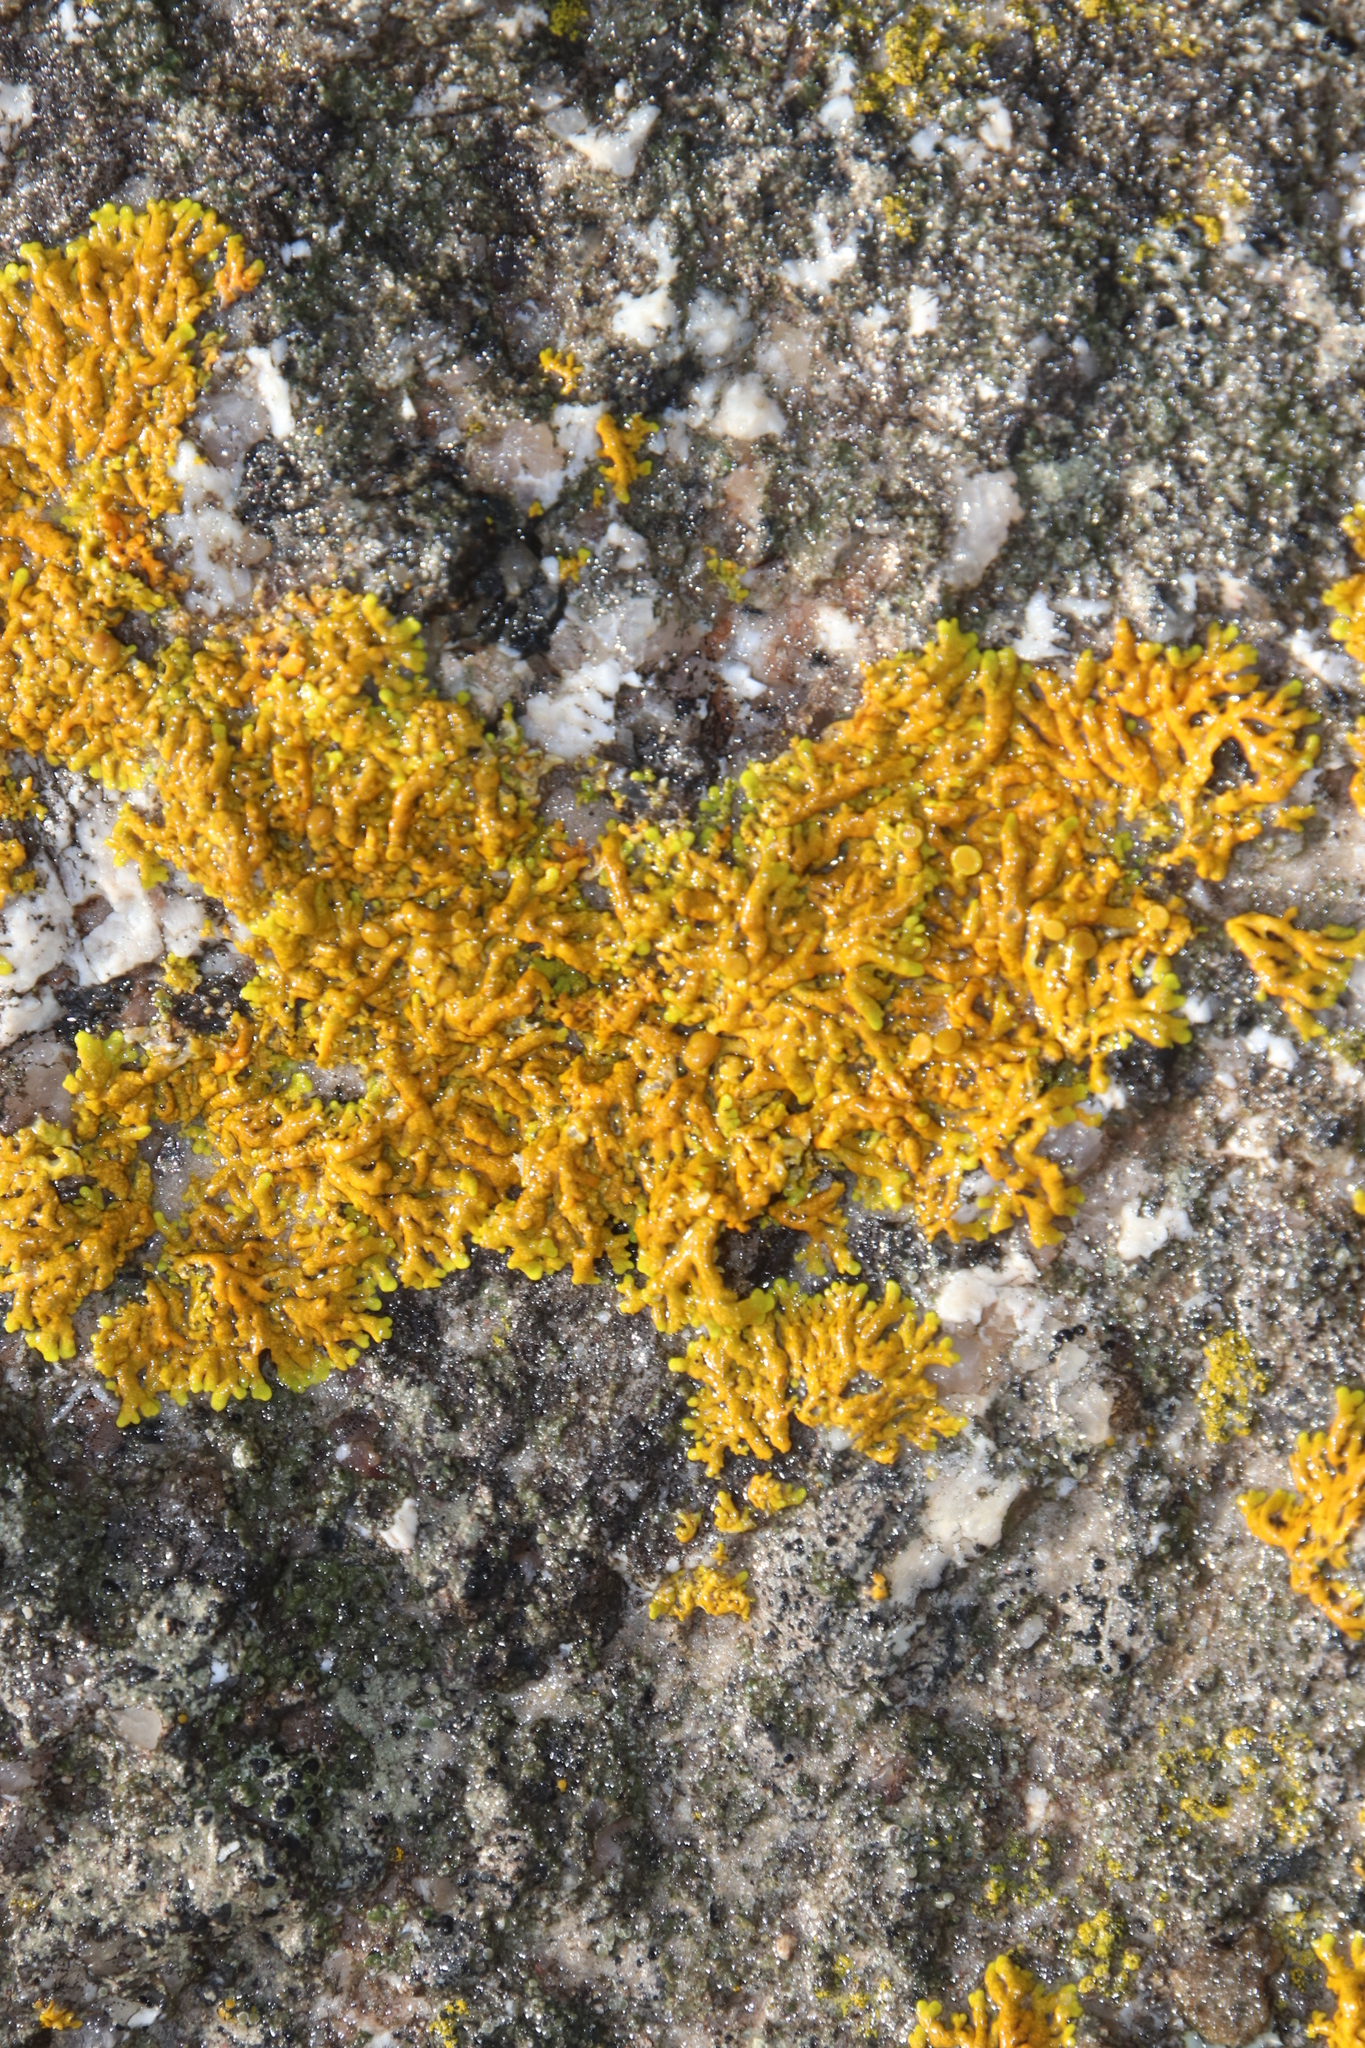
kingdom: Fungi
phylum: Ascomycota
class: Lecanoromycetes
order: Teloschistales
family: Teloschistaceae
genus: Dufourea
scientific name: Dufourea capensis
